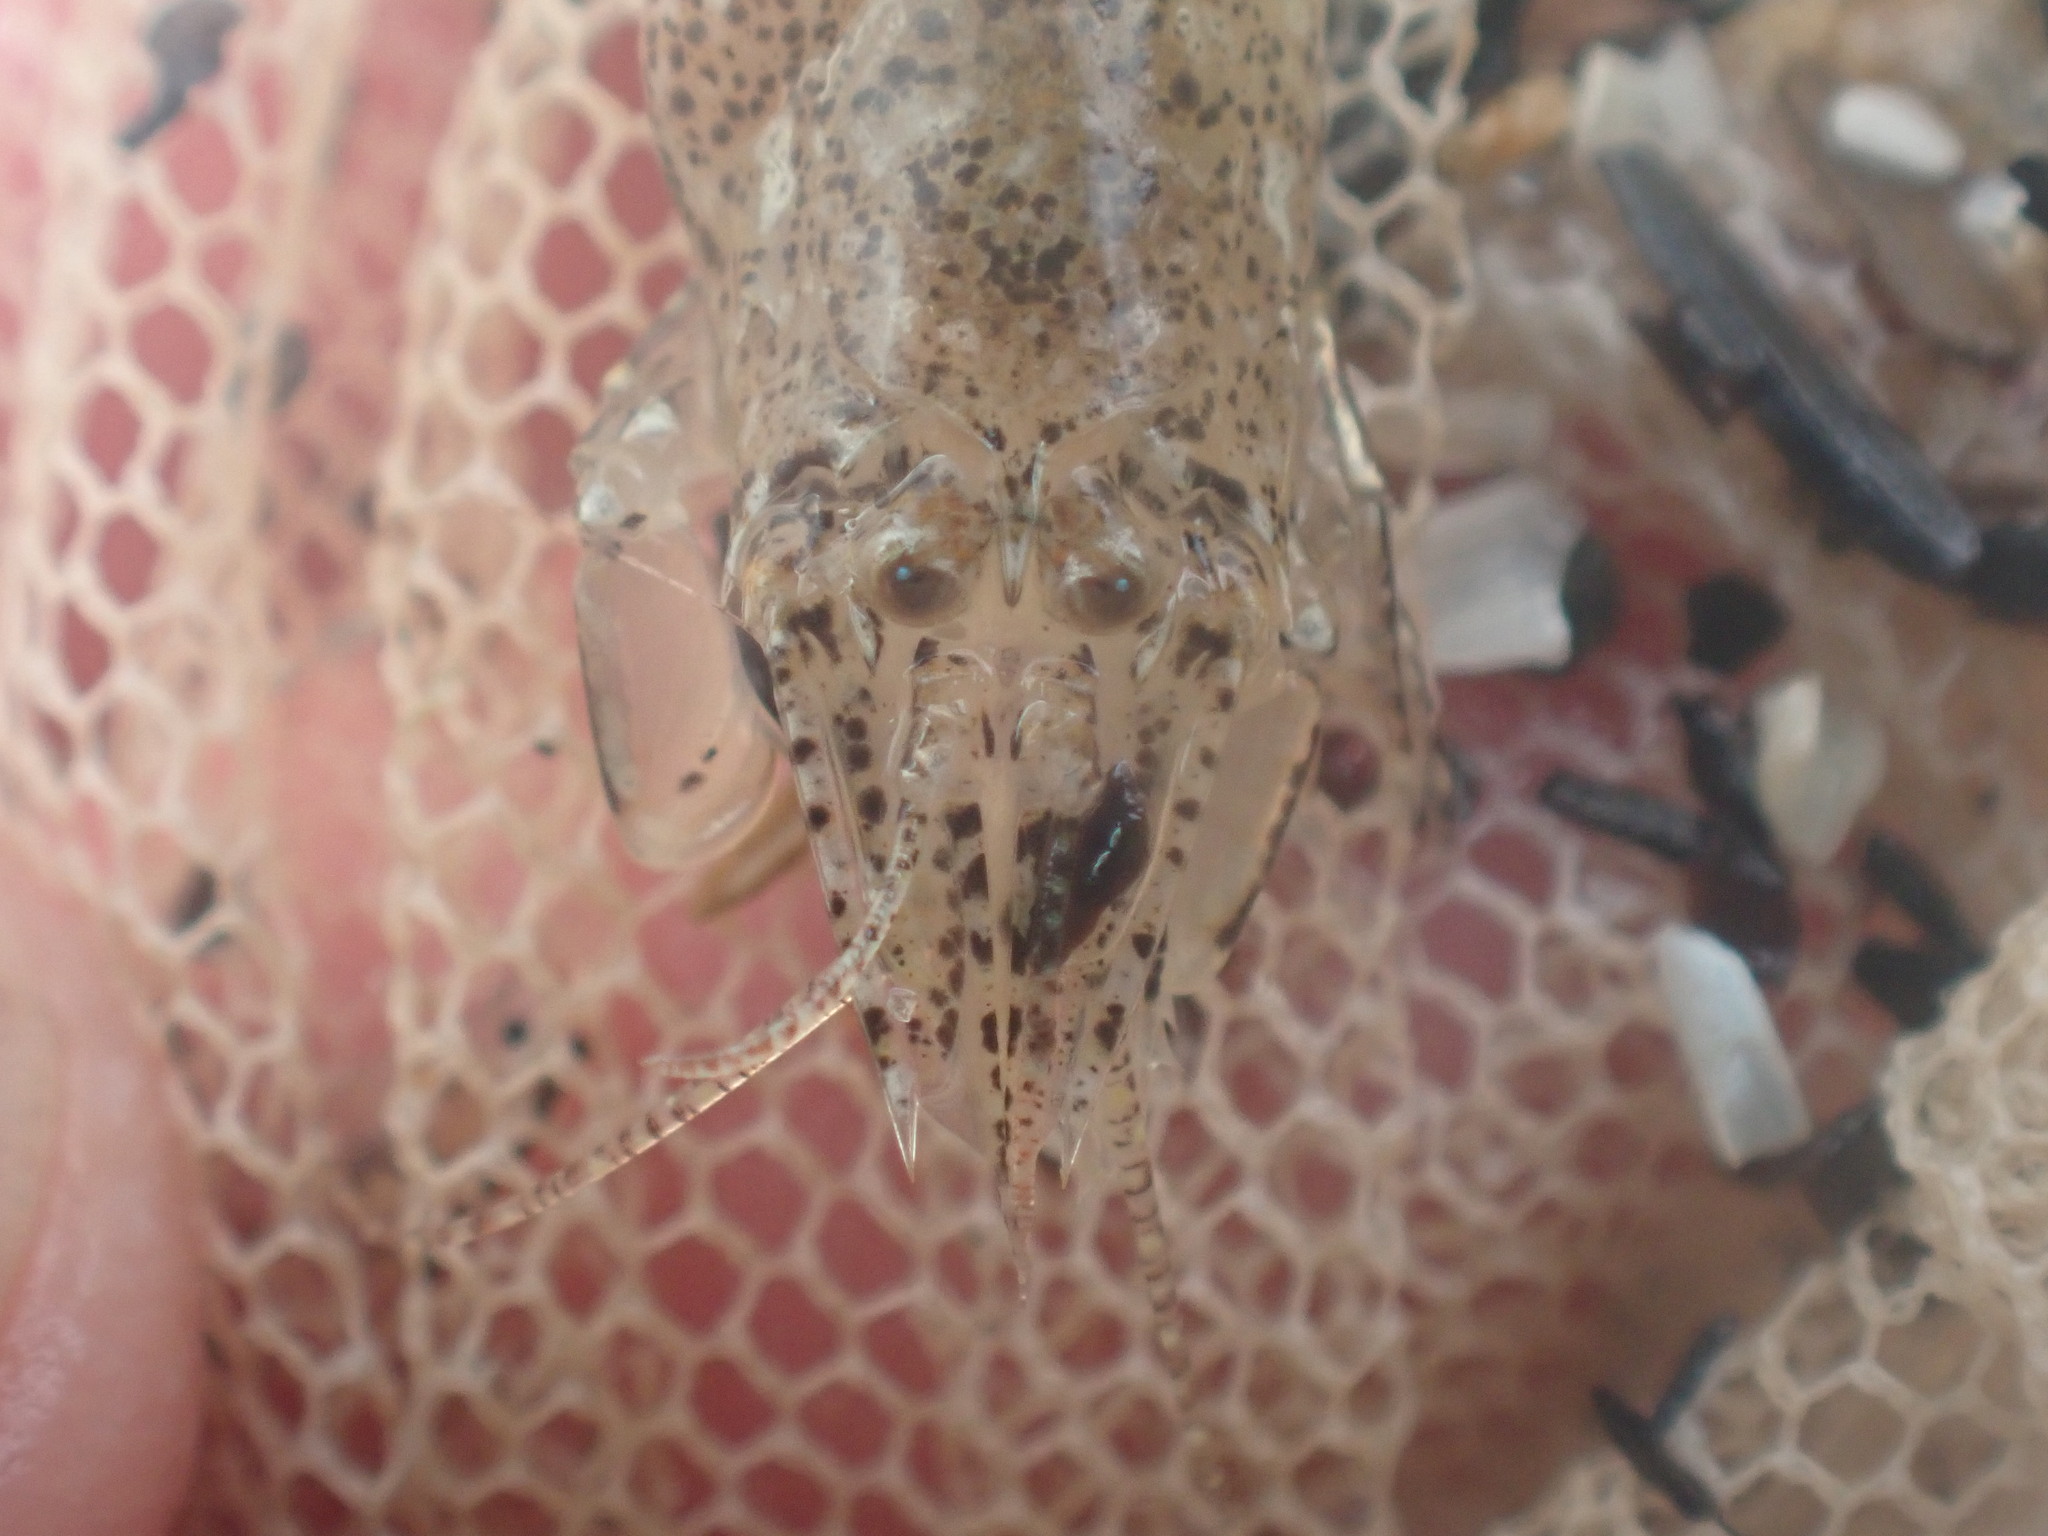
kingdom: Animalia
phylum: Arthropoda
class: Malacostraca
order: Decapoda
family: Crangonidae
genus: Lissocrangon
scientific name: Lissocrangon stylirostris
